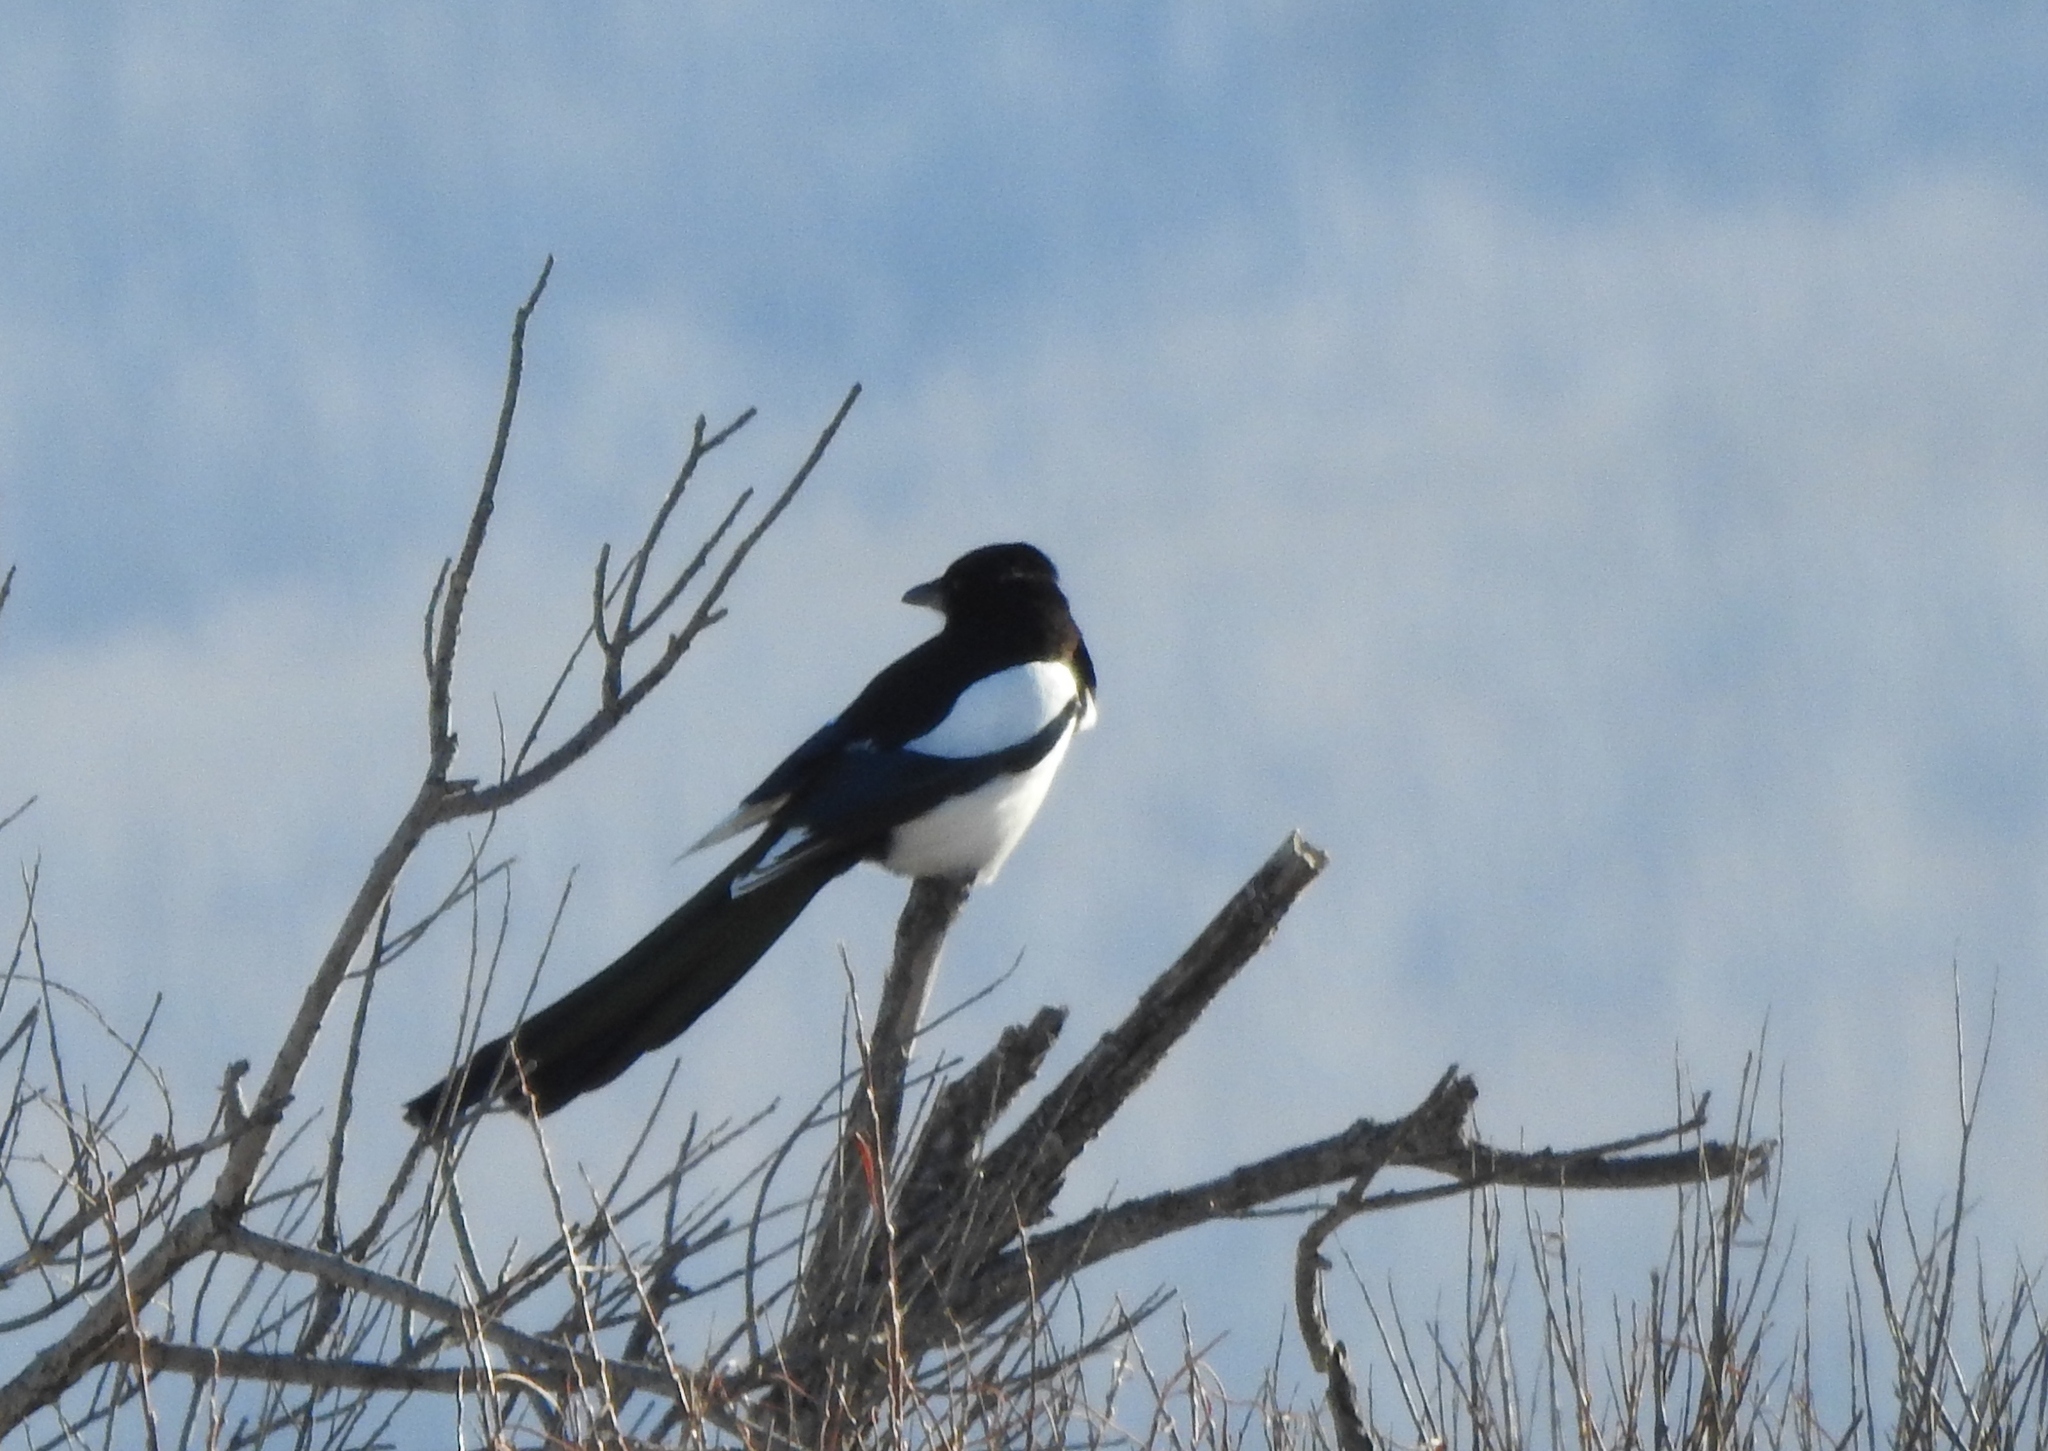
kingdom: Animalia
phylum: Chordata
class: Aves
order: Passeriformes
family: Corvidae
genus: Pica
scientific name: Pica pica
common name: Eurasian magpie
